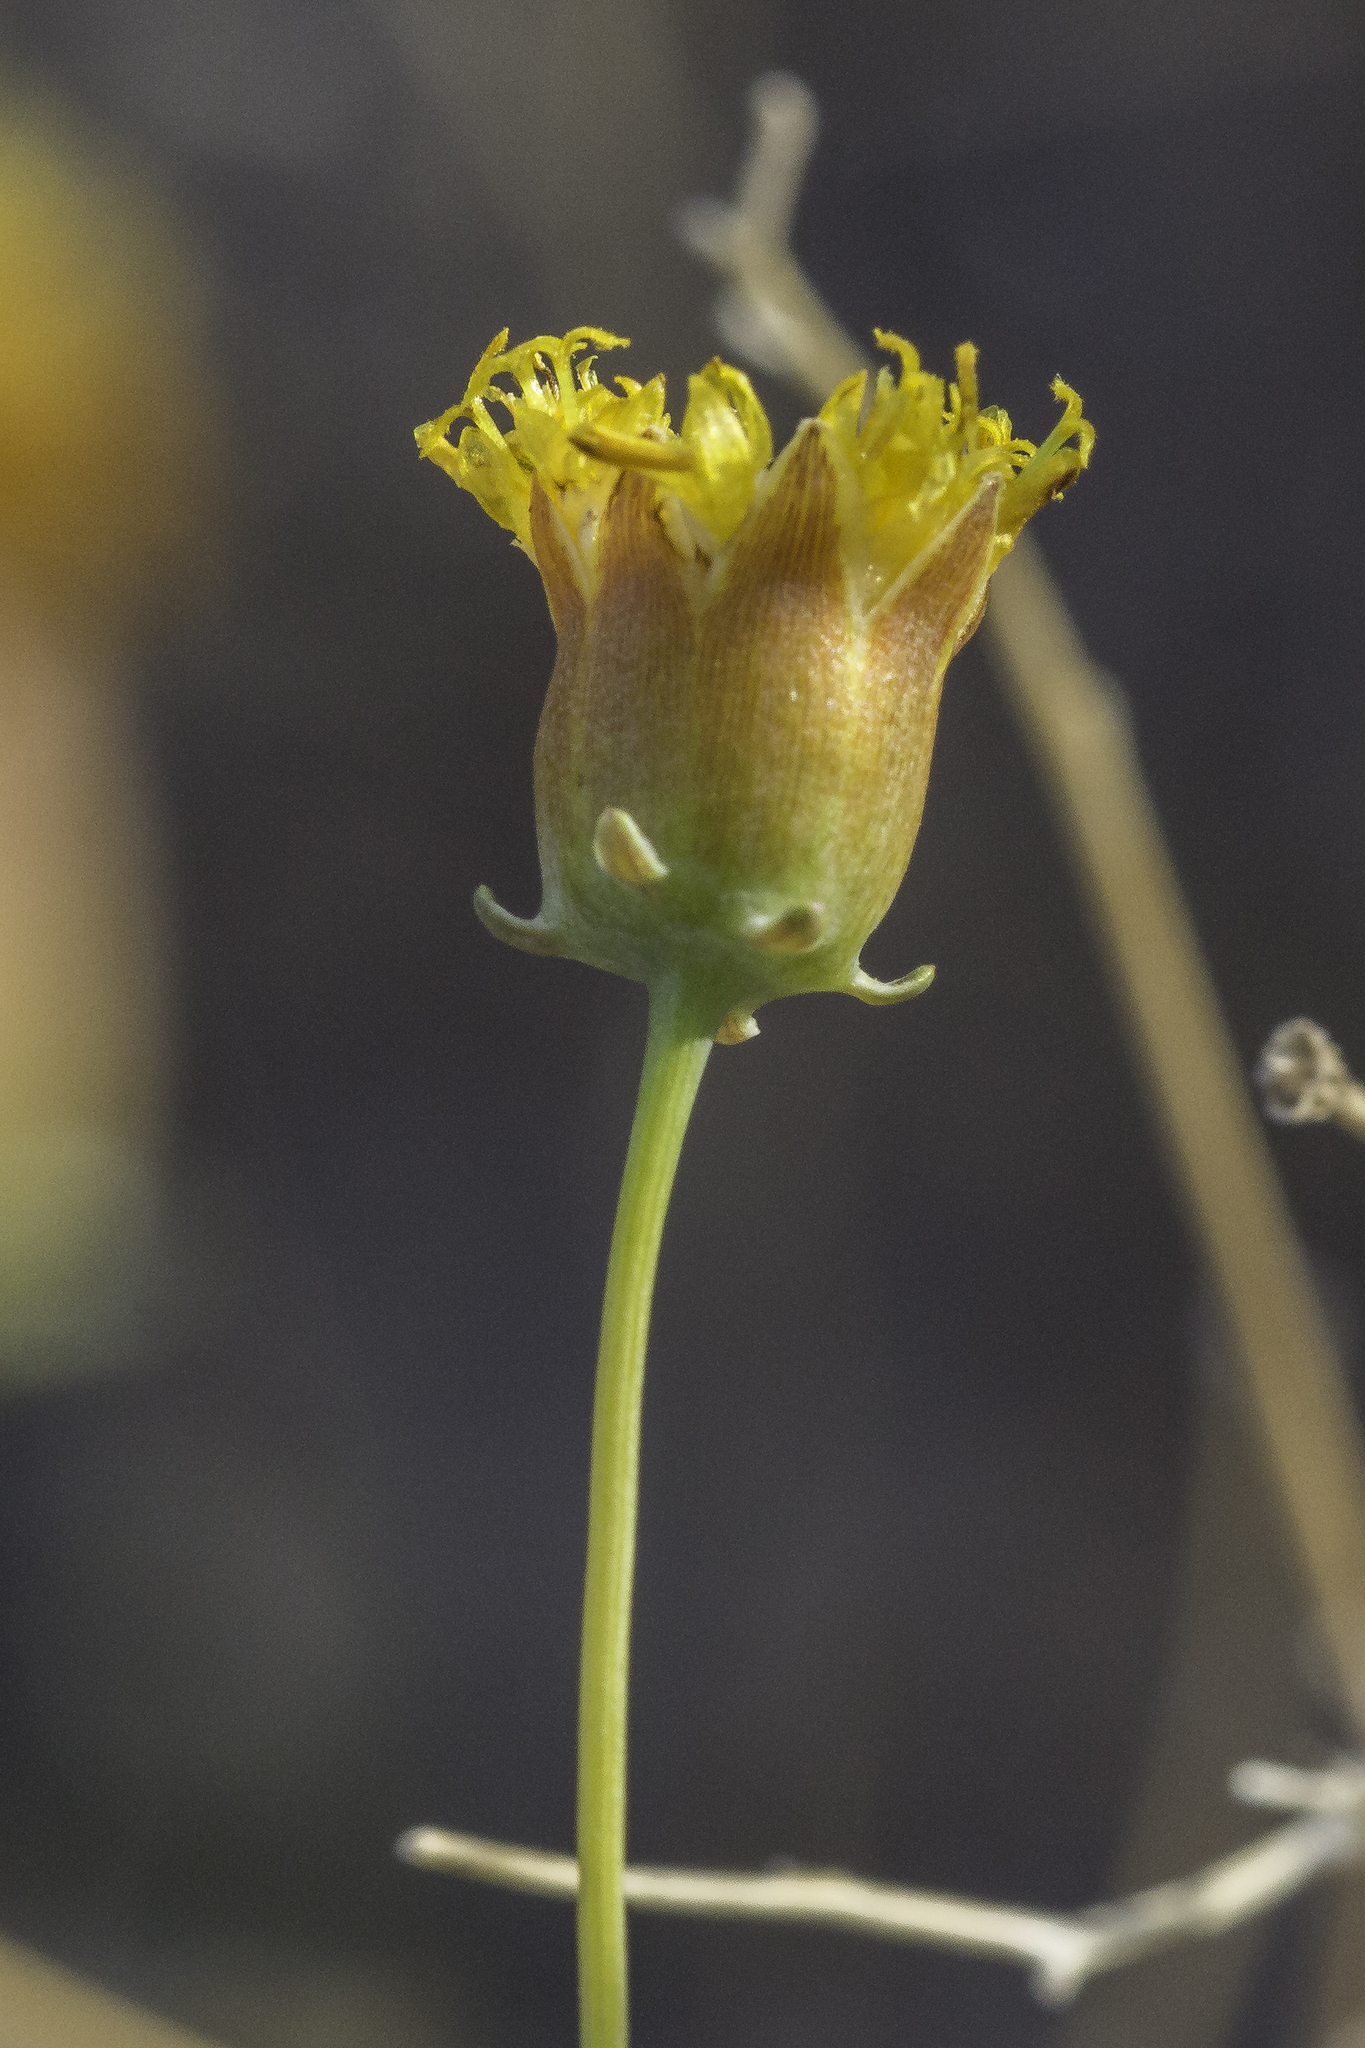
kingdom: Plantae
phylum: Tracheophyta
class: Magnoliopsida
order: Asterales
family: Asteraceae
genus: Thelesperma
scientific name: Thelesperma megapotamicum
